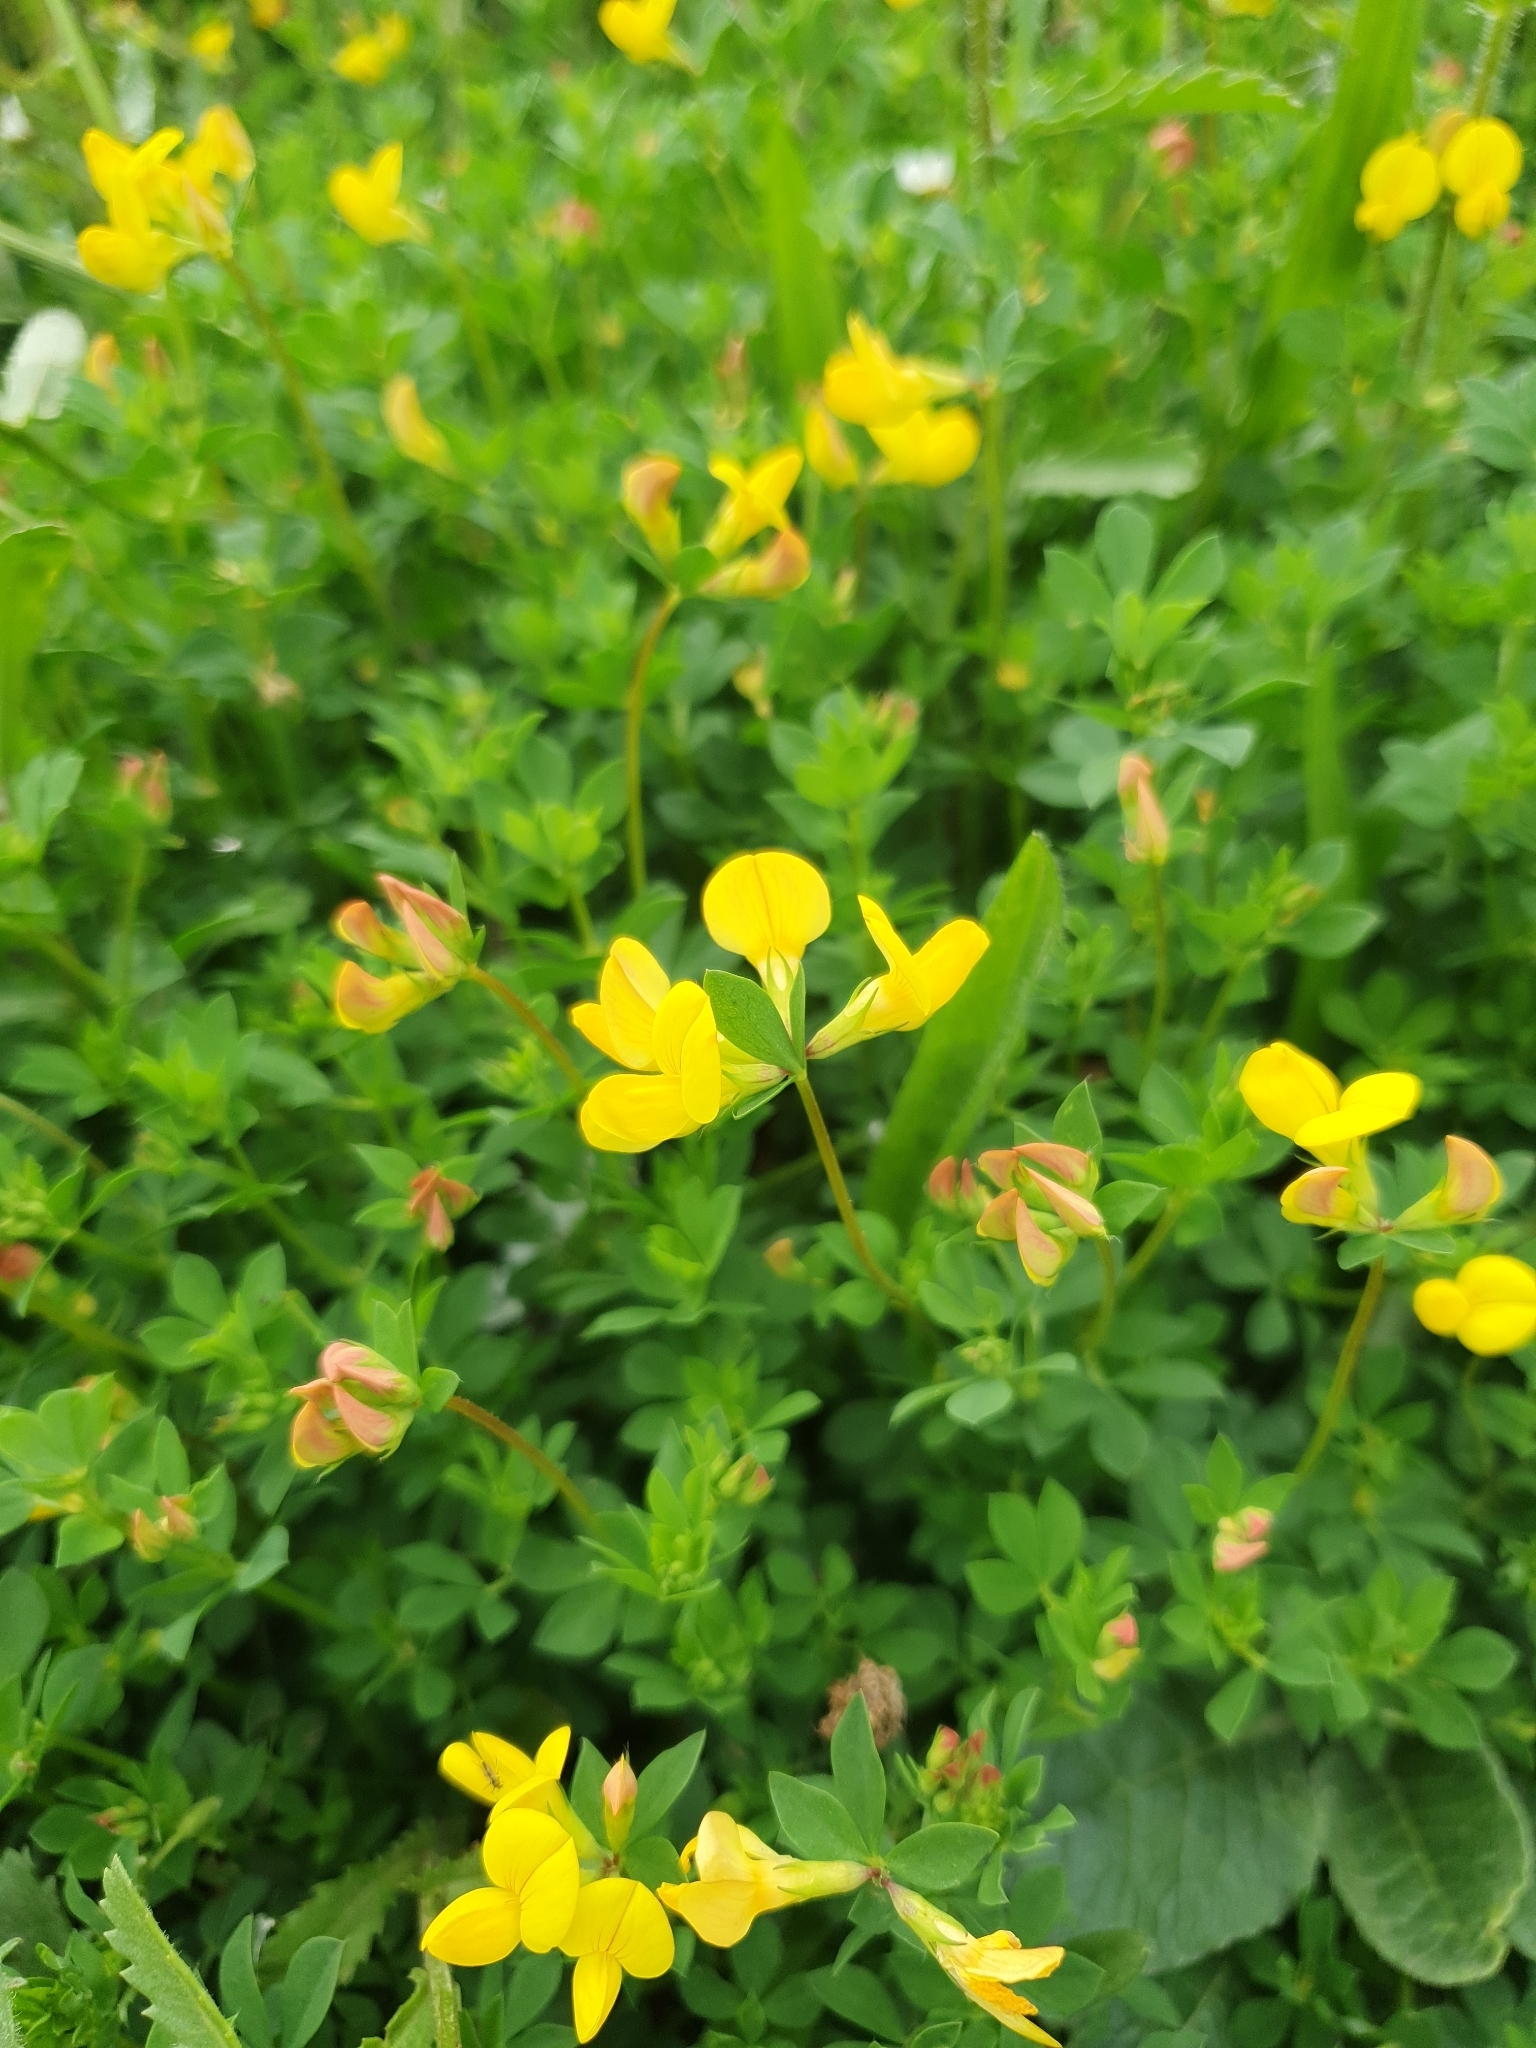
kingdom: Plantae
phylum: Tracheophyta
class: Magnoliopsida
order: Fabales
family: Fabaceae
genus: Lotus
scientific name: Lotus corniculatus
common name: Common bird's-foot-trefoil
